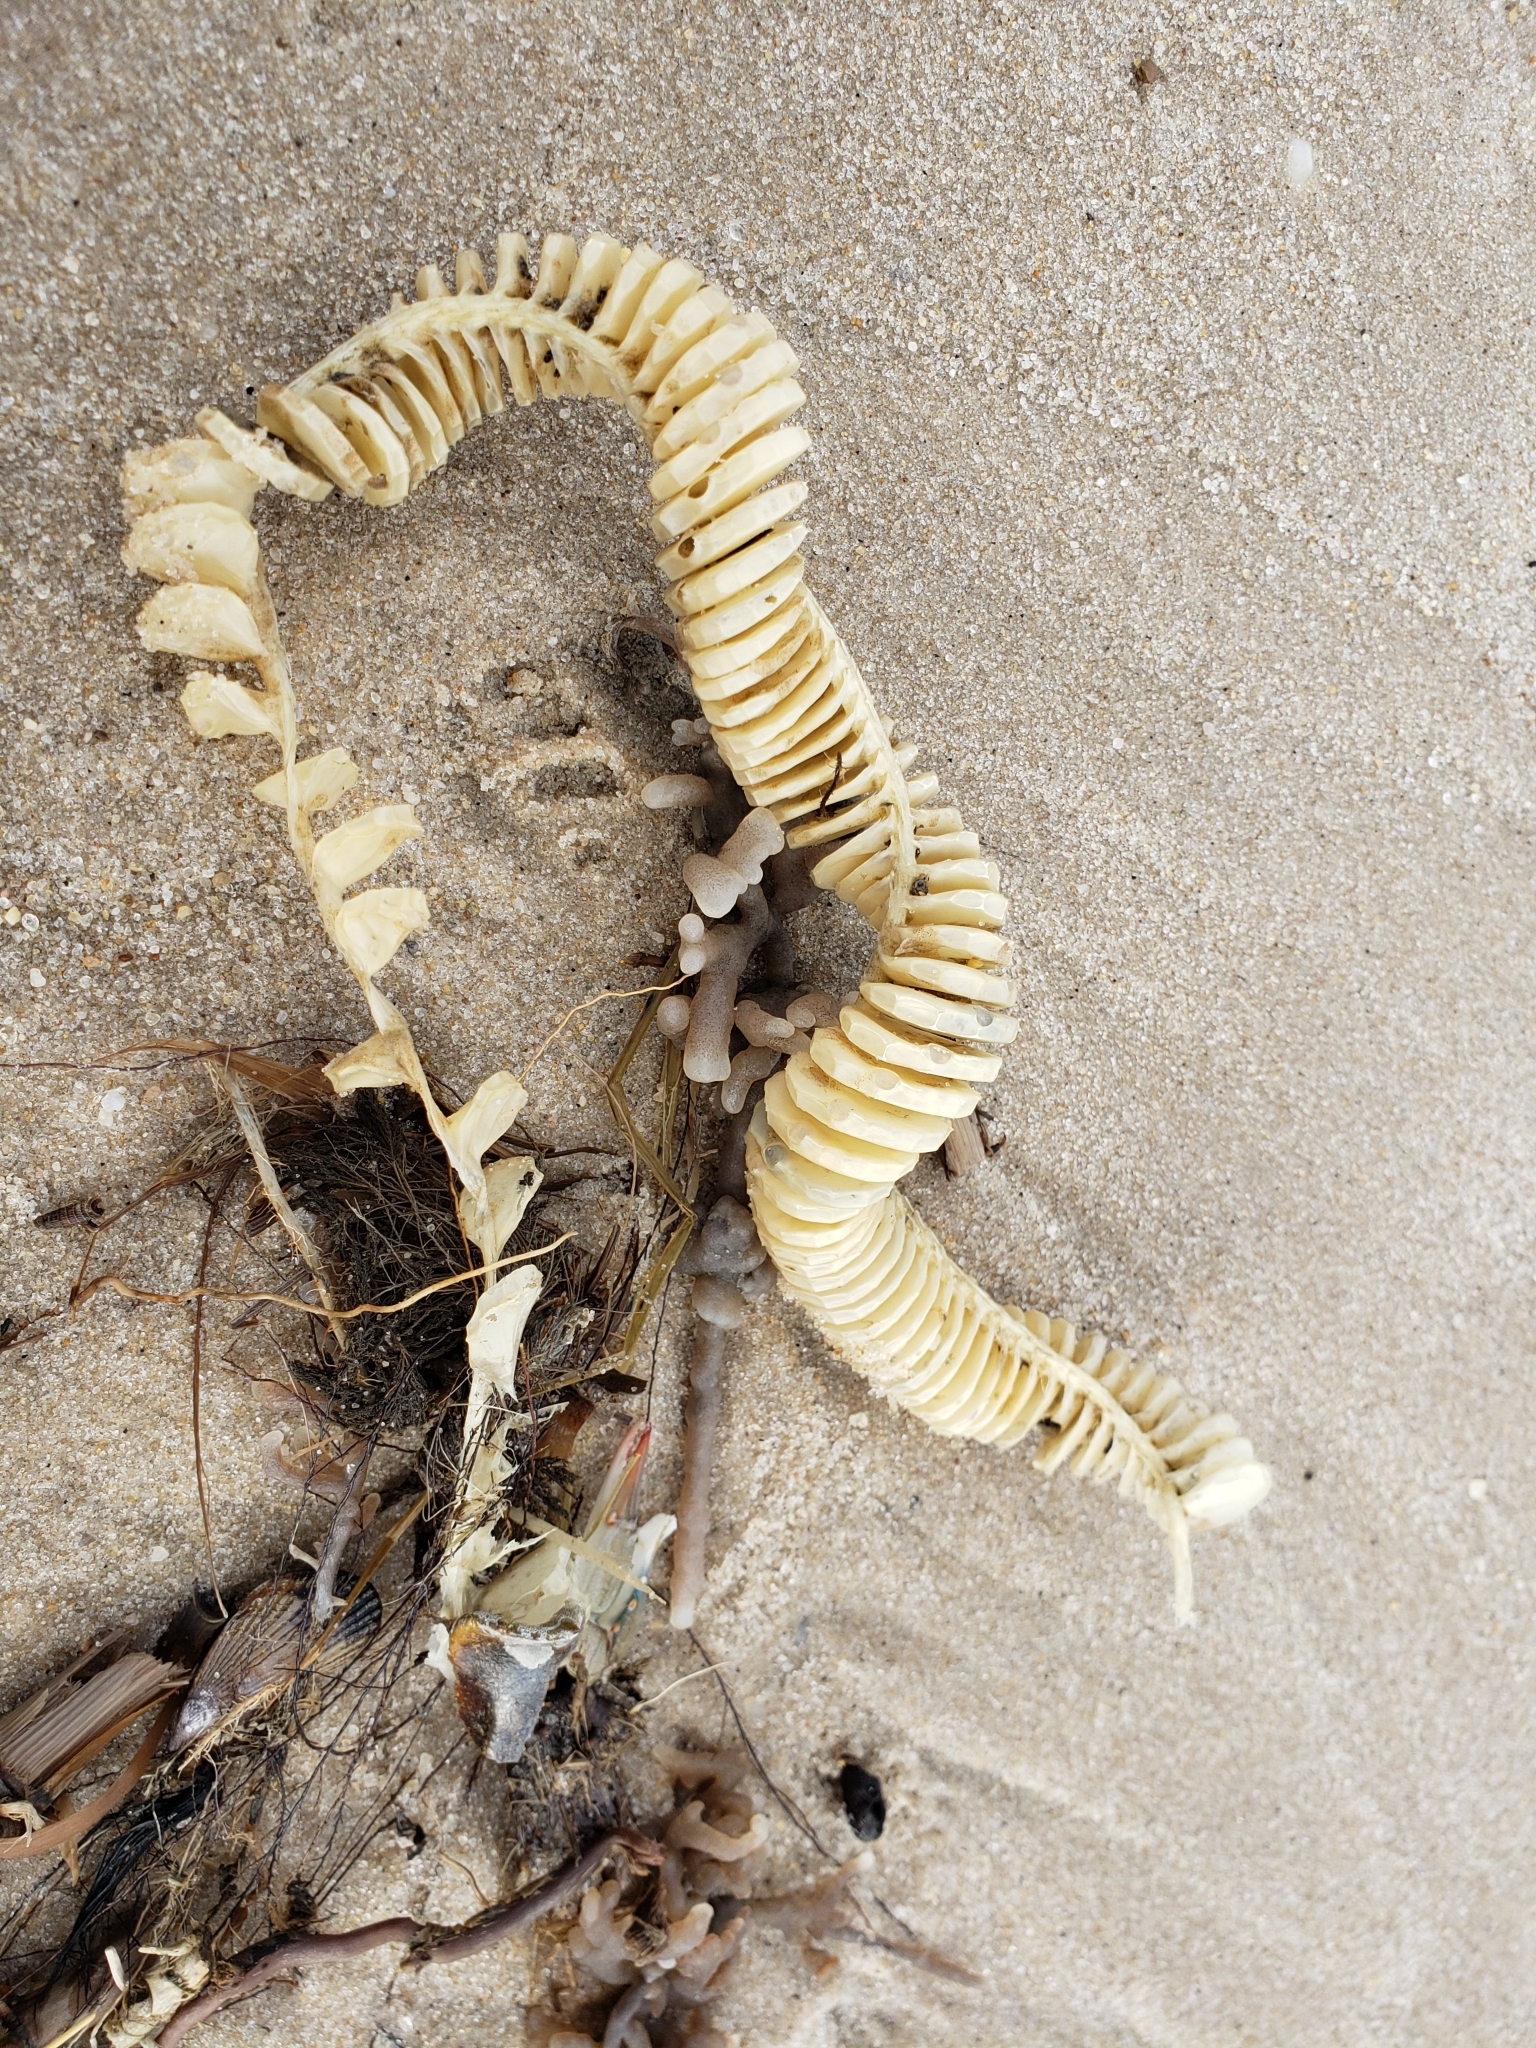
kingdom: Animalia
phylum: Mollusca
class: Gastropoda
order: Neogastropoda
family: Busyconidae
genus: Busycon
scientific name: Busycon carica
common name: Knobbed whelk
